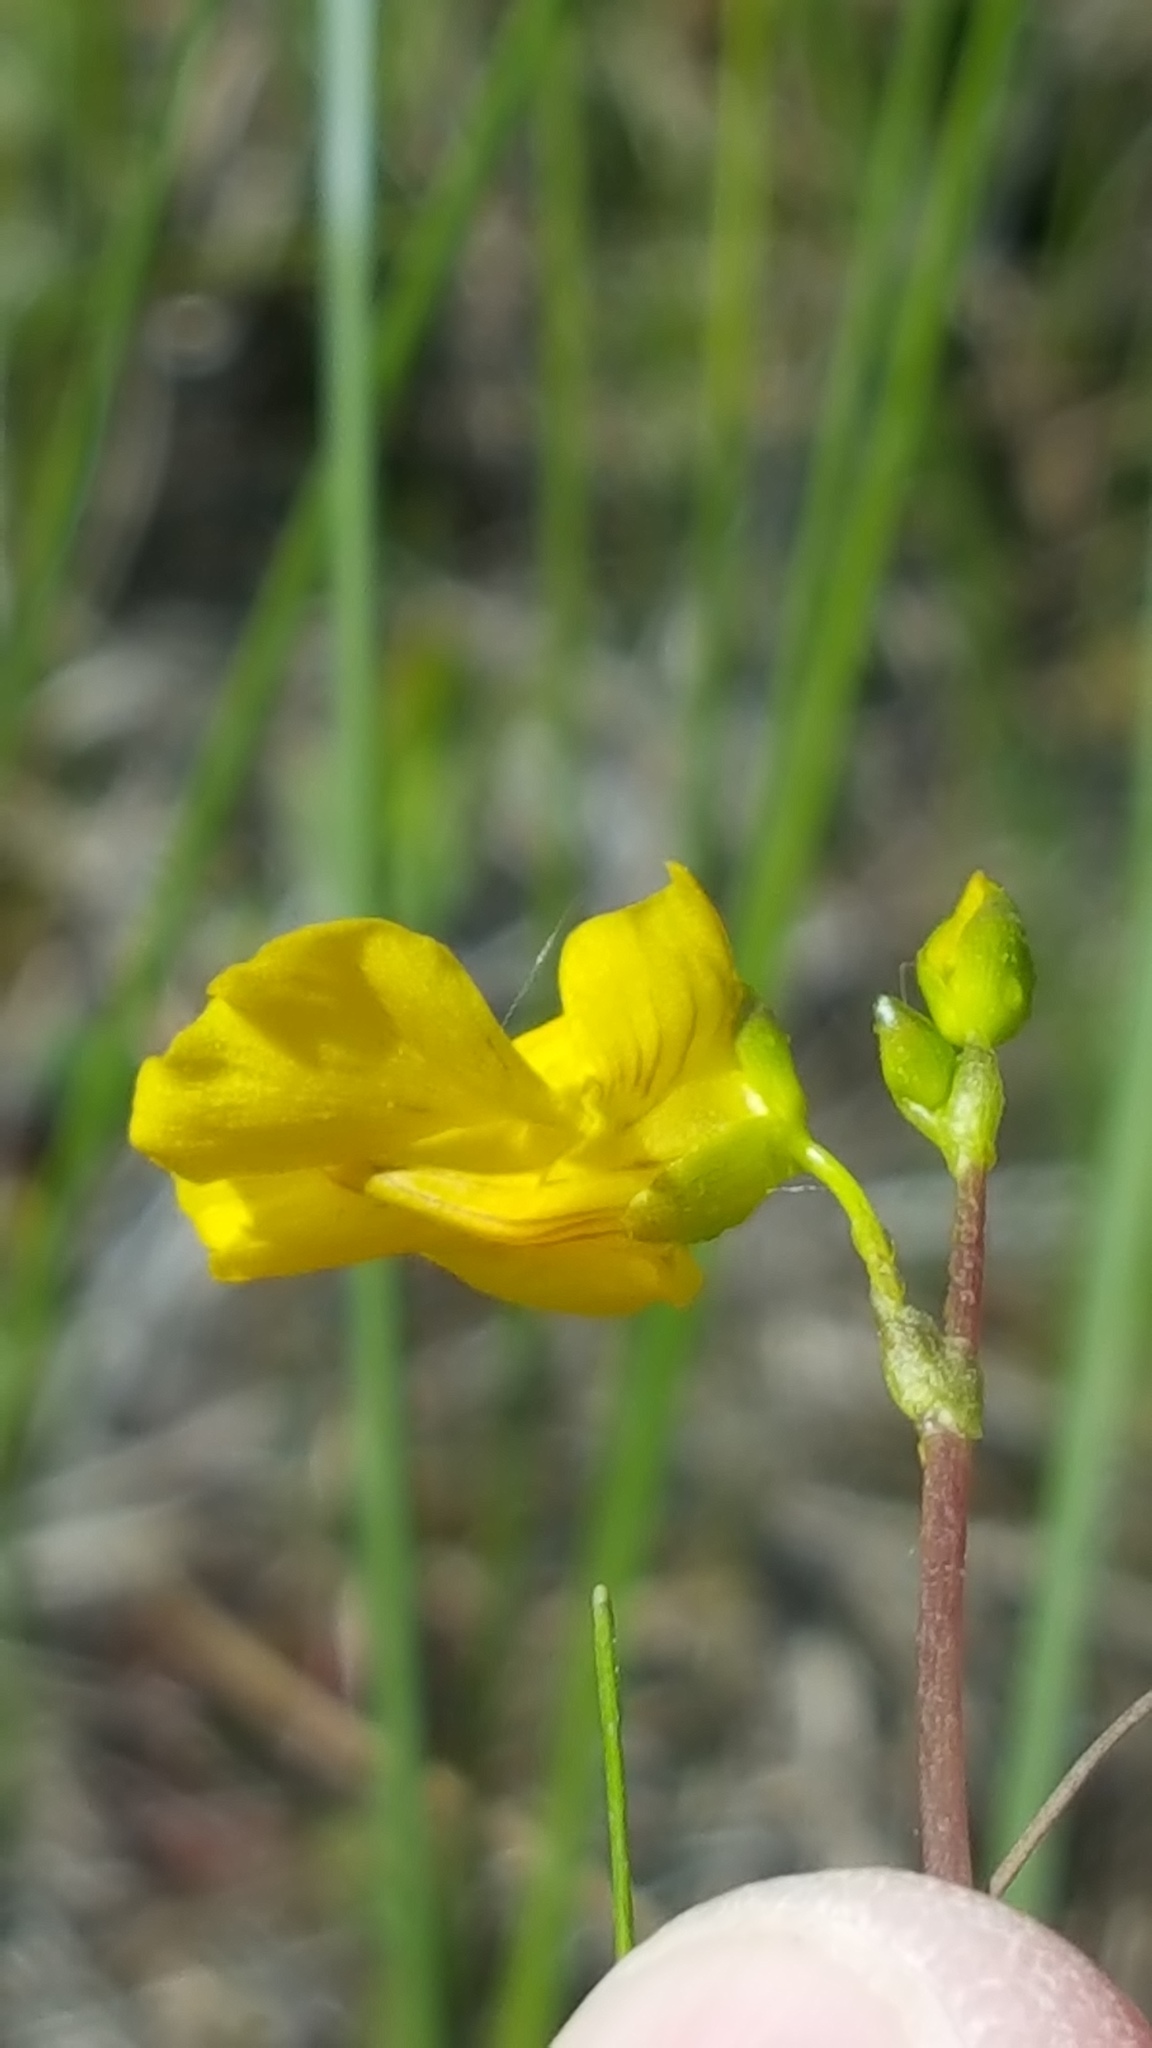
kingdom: Plantae
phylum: Tracheophyta
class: Magnoliopsida
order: Lamiales
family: Lentibulariaceae
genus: Utricularia
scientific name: Utricularia intermedia
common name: Intermediate bladderwort
